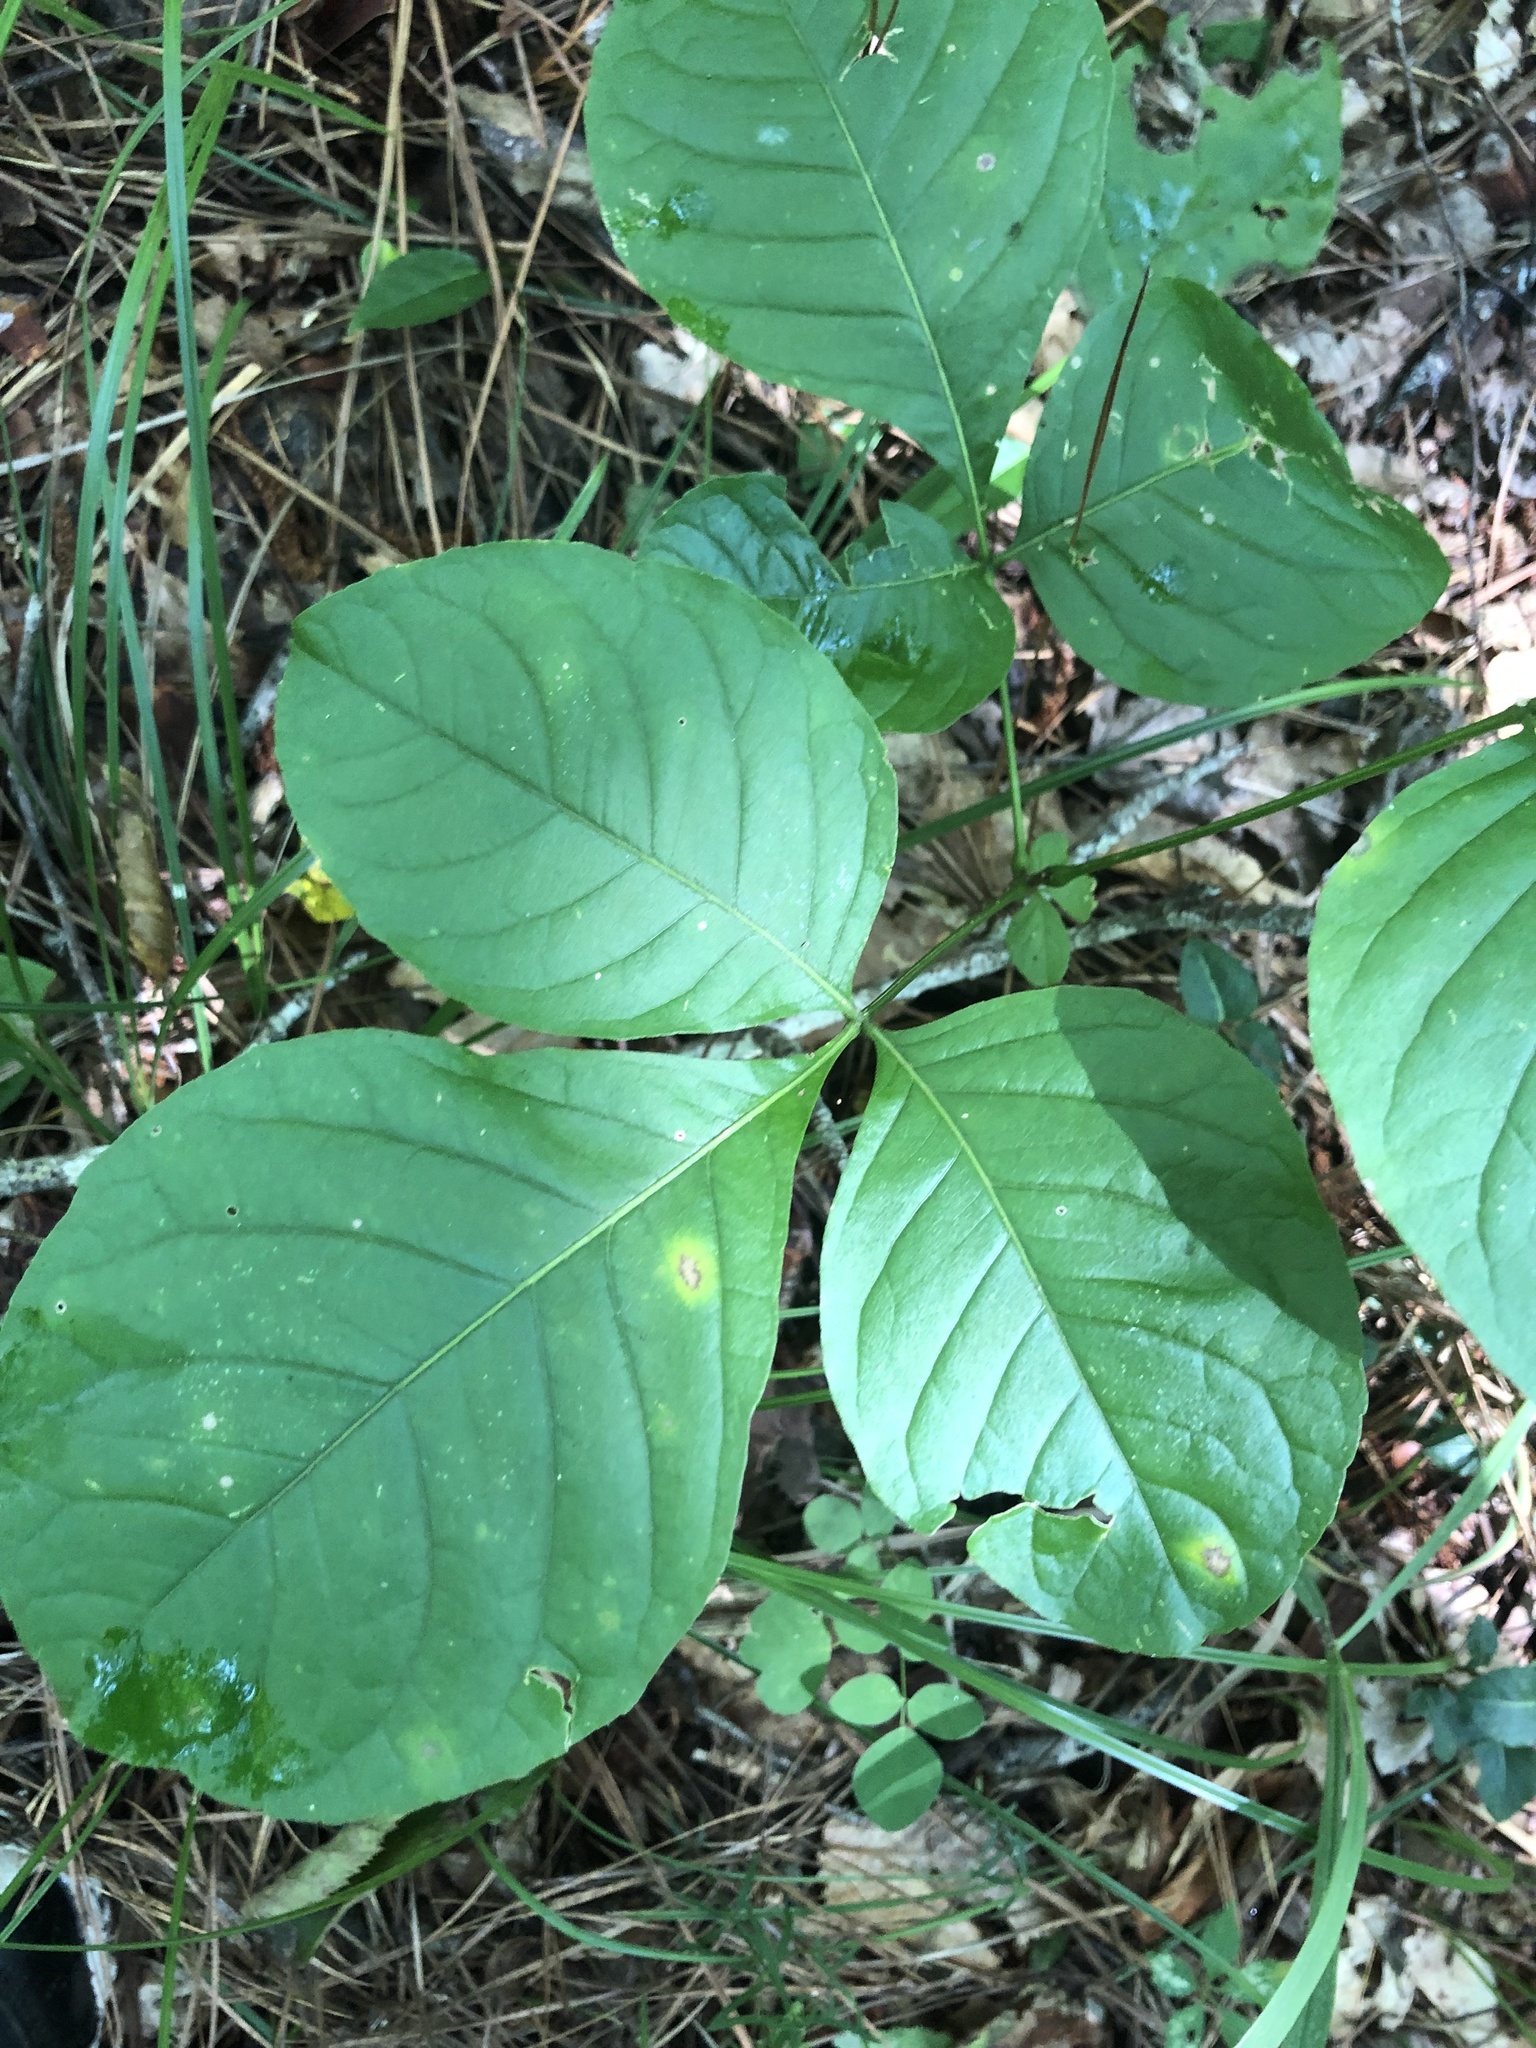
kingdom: Plantae
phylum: Tracheophyta
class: Magnoliopsida
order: Sapindales
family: Rutaceae
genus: Ptelea
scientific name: Ptelea trifoliata
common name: Common hop-tree
